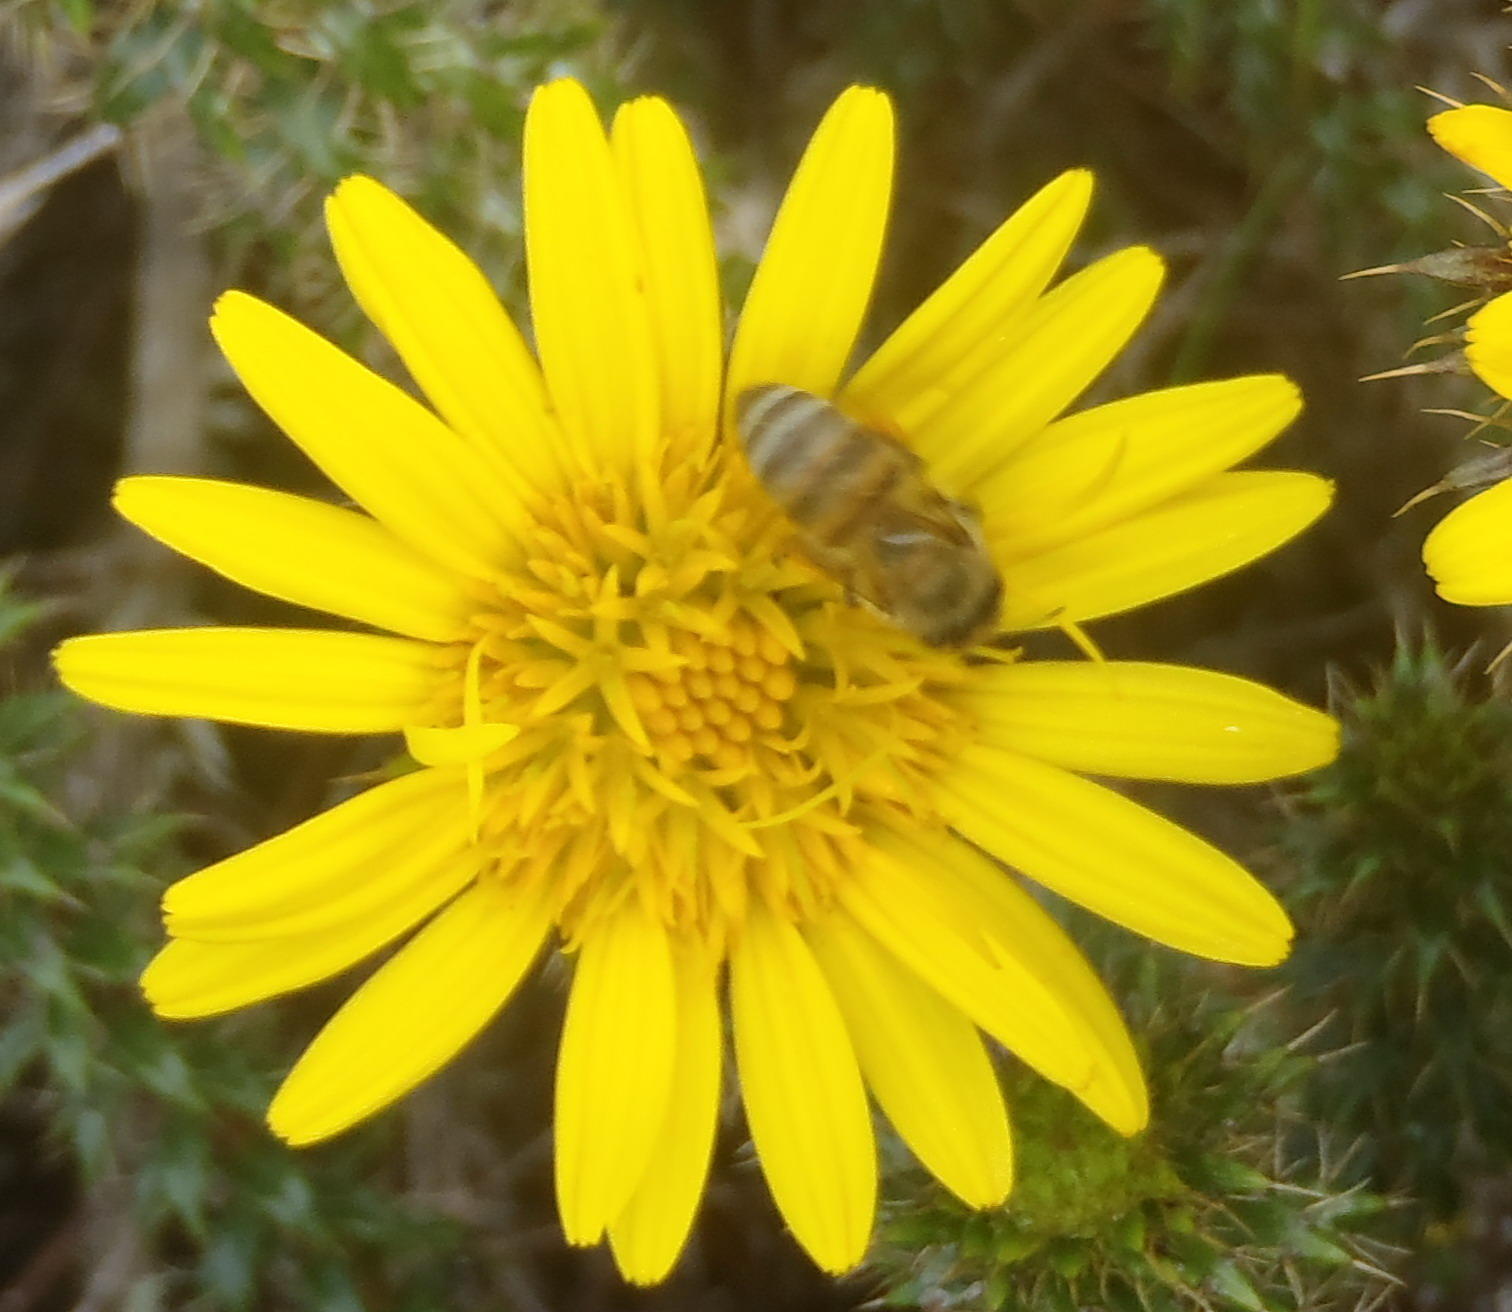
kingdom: Animalia
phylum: Arthropoda
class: Insecta
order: Hymenoptera
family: Apidae
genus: Apis
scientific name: Apis mellifera
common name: Honey bee
